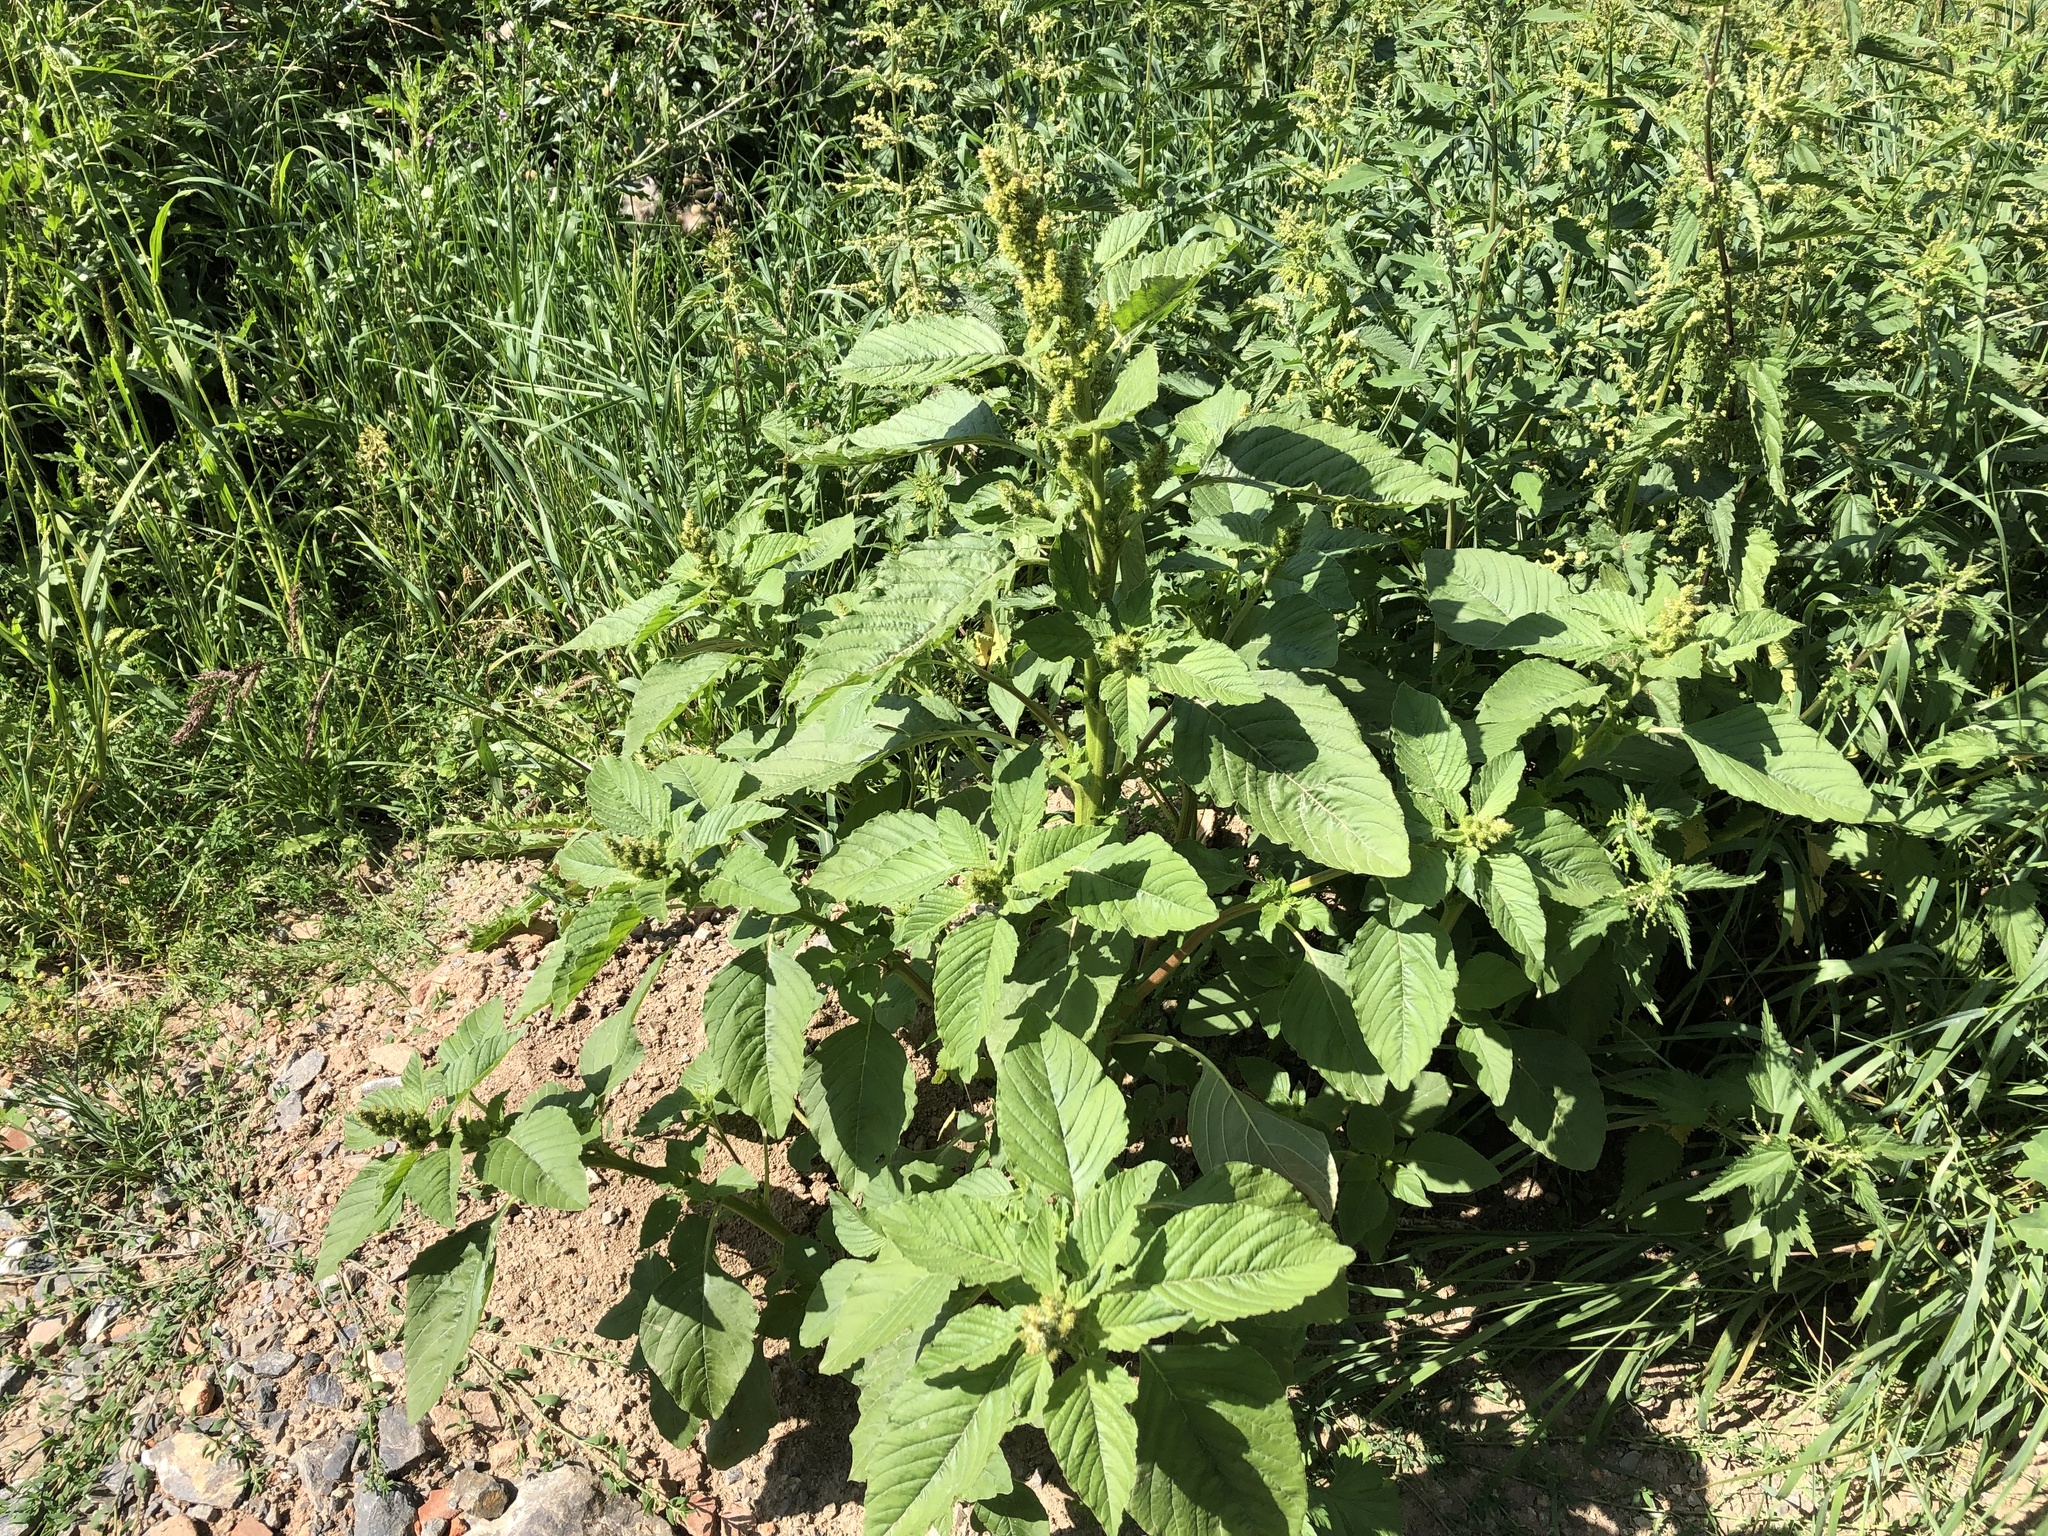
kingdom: Plantae
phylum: Tracheophyta
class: Magnoliopsida
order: Caryophyllales
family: Amaranthaceae
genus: Amaranthus
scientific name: Amaranthus retroflexus
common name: Redroot amaranth
